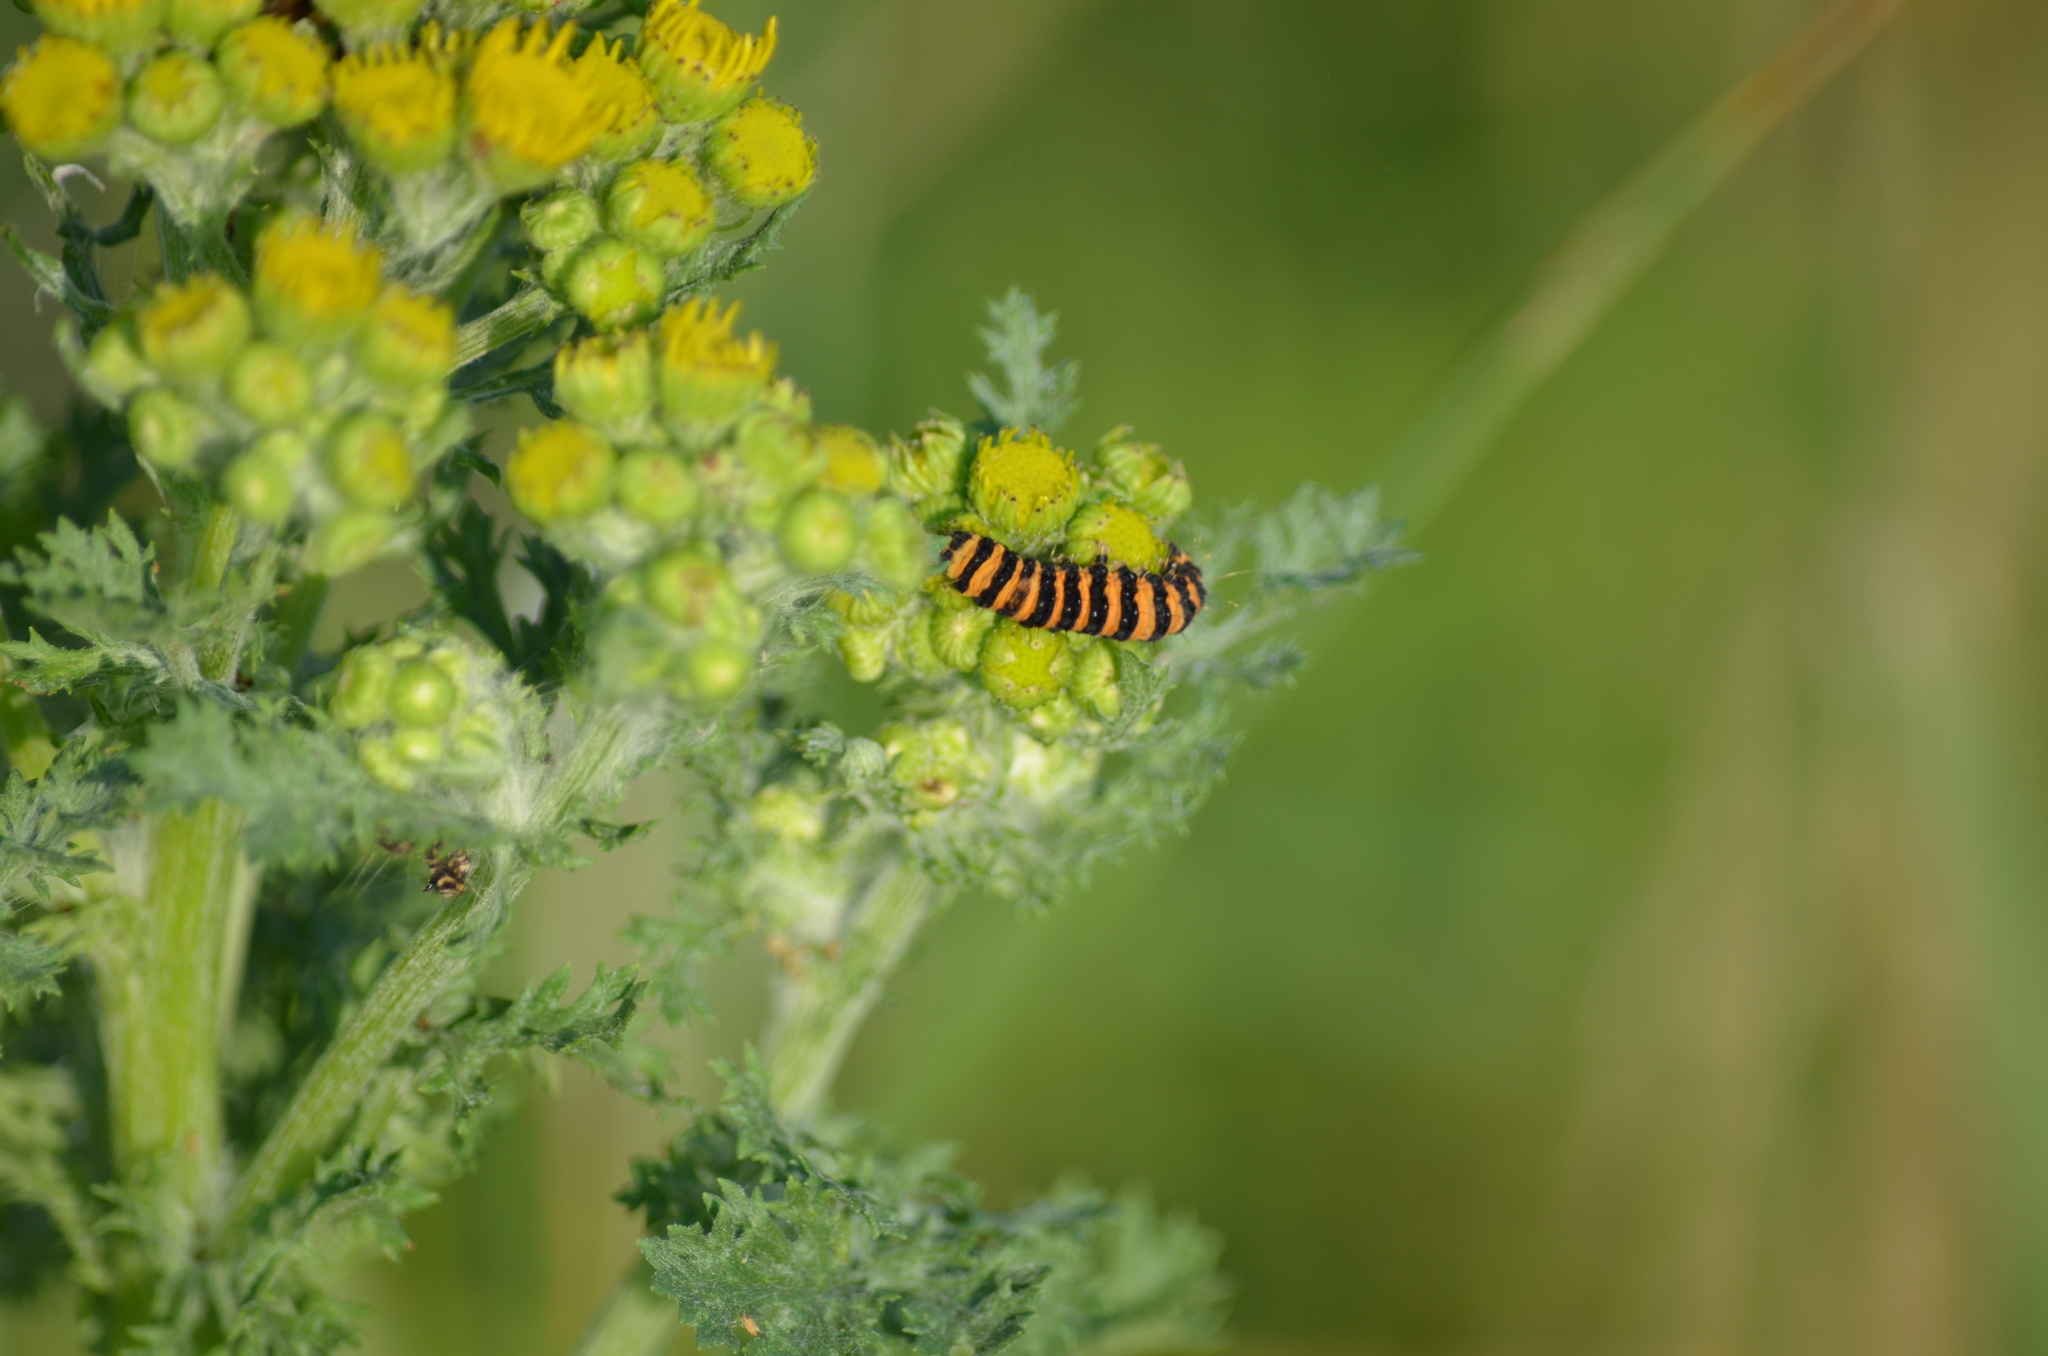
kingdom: Animalia
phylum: Arthropoda
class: Insecta
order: Lepidoptera
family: Erebidae
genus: Tyria
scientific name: Tyria jacobaeae
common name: Cinnabar
